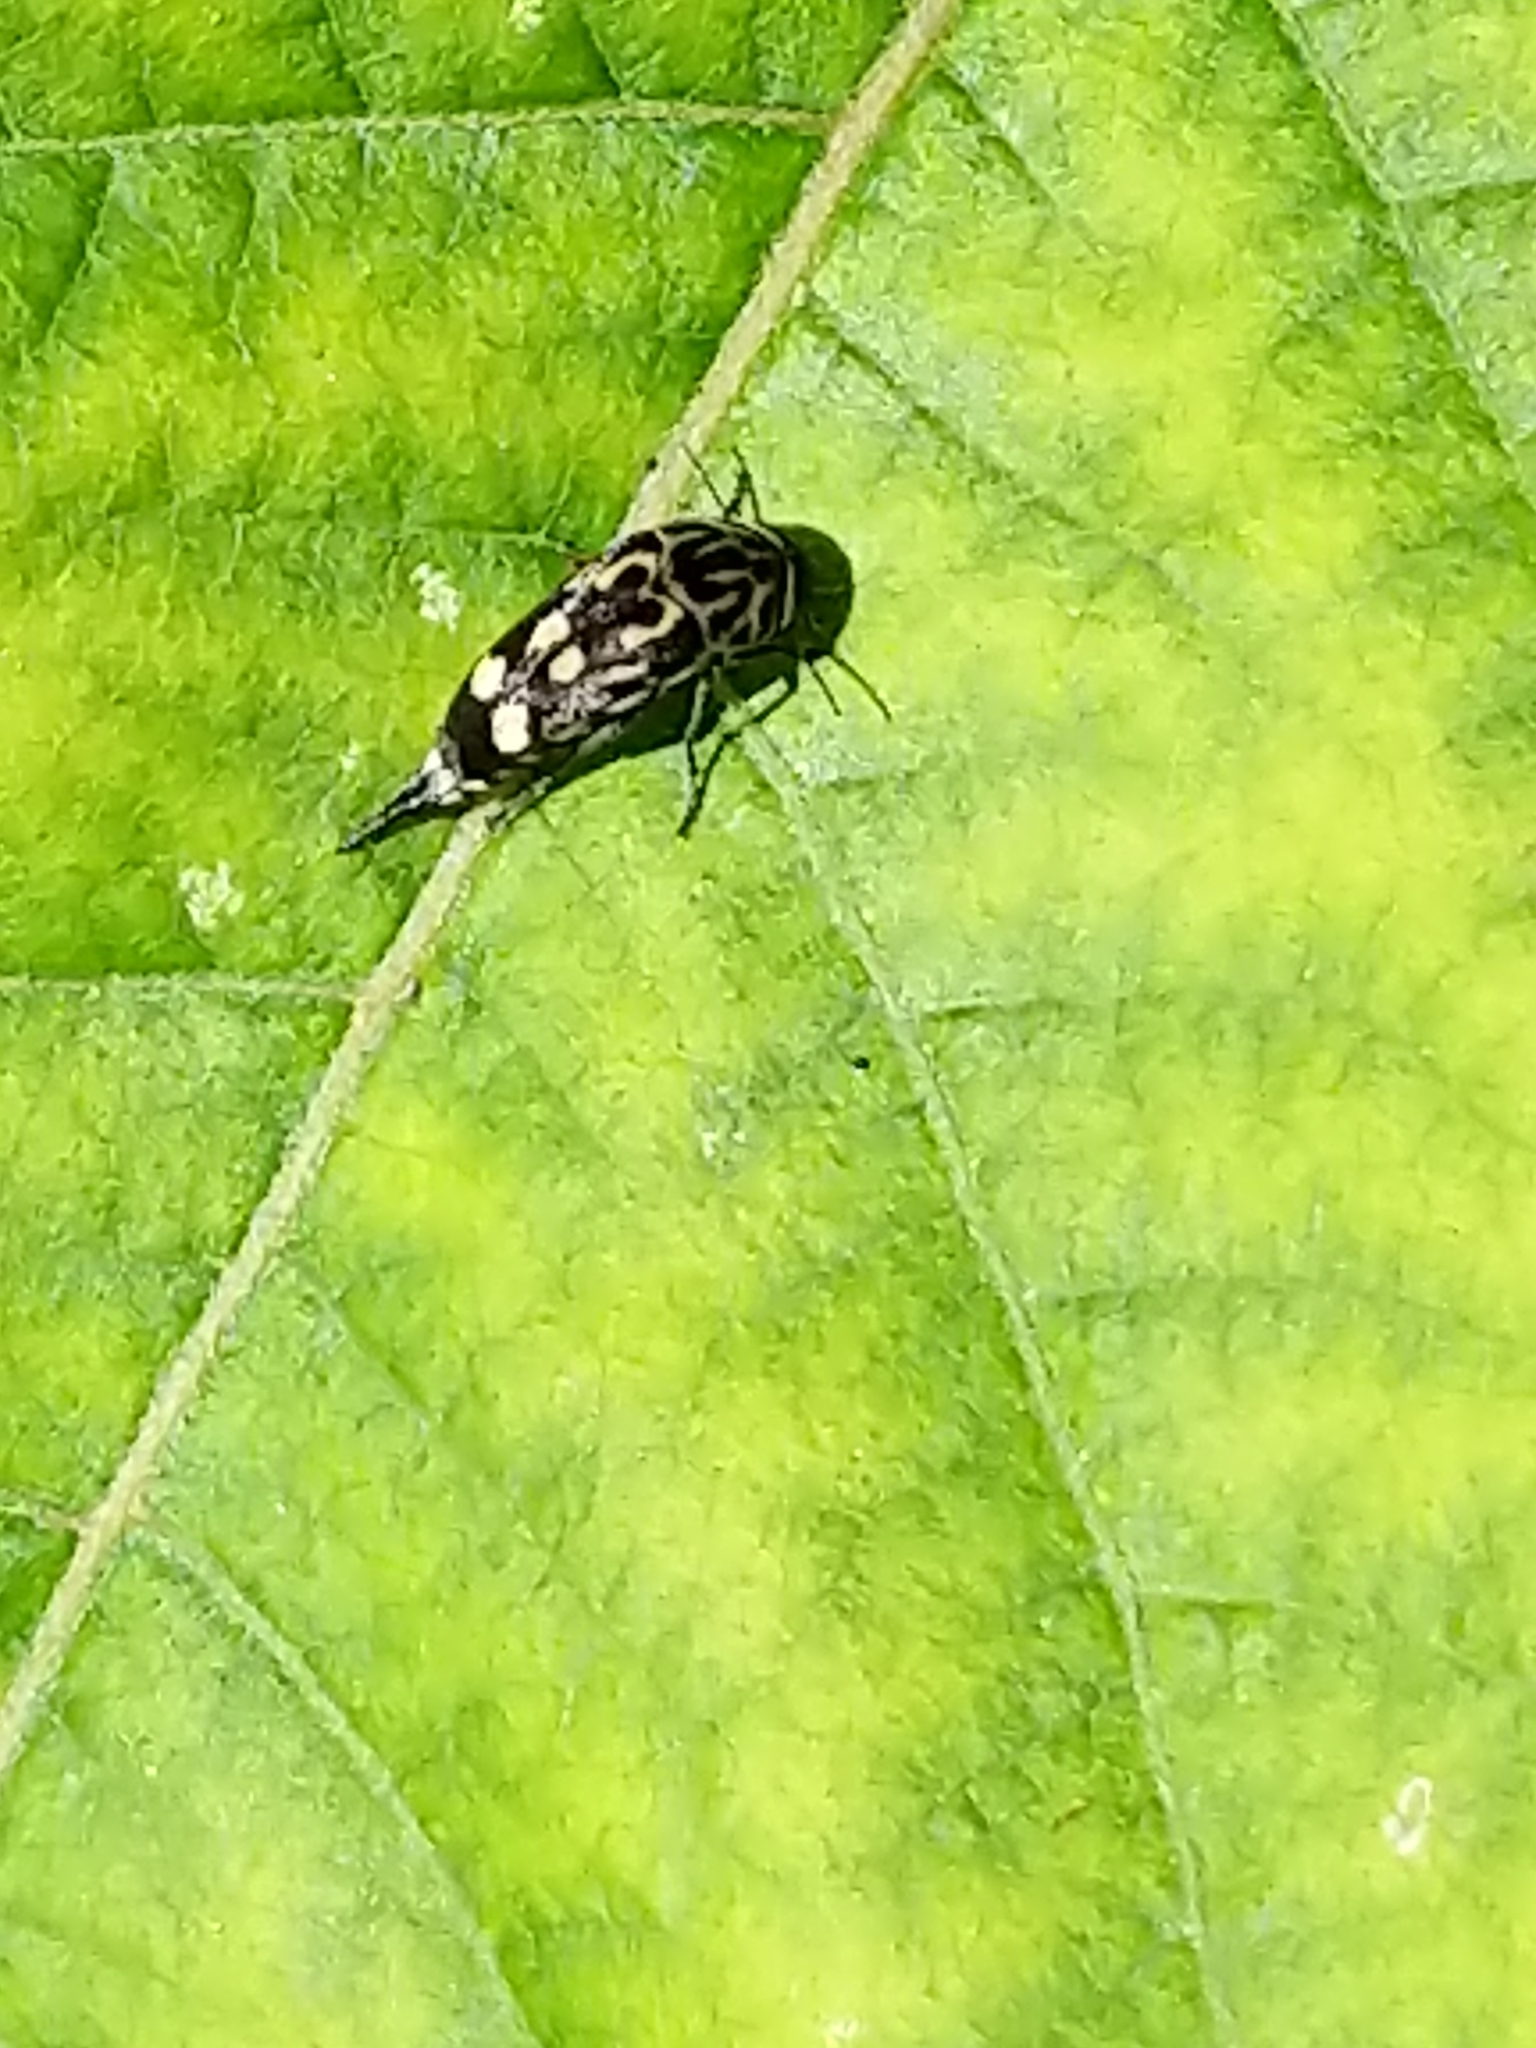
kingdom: Animalia
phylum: Arthropoda
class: Insecta
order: Coleoptera
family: Mordellidae
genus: Hoshihananomia
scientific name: Hoshihananomia octopunctata
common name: Eight-spotted tumbling flower beetle
